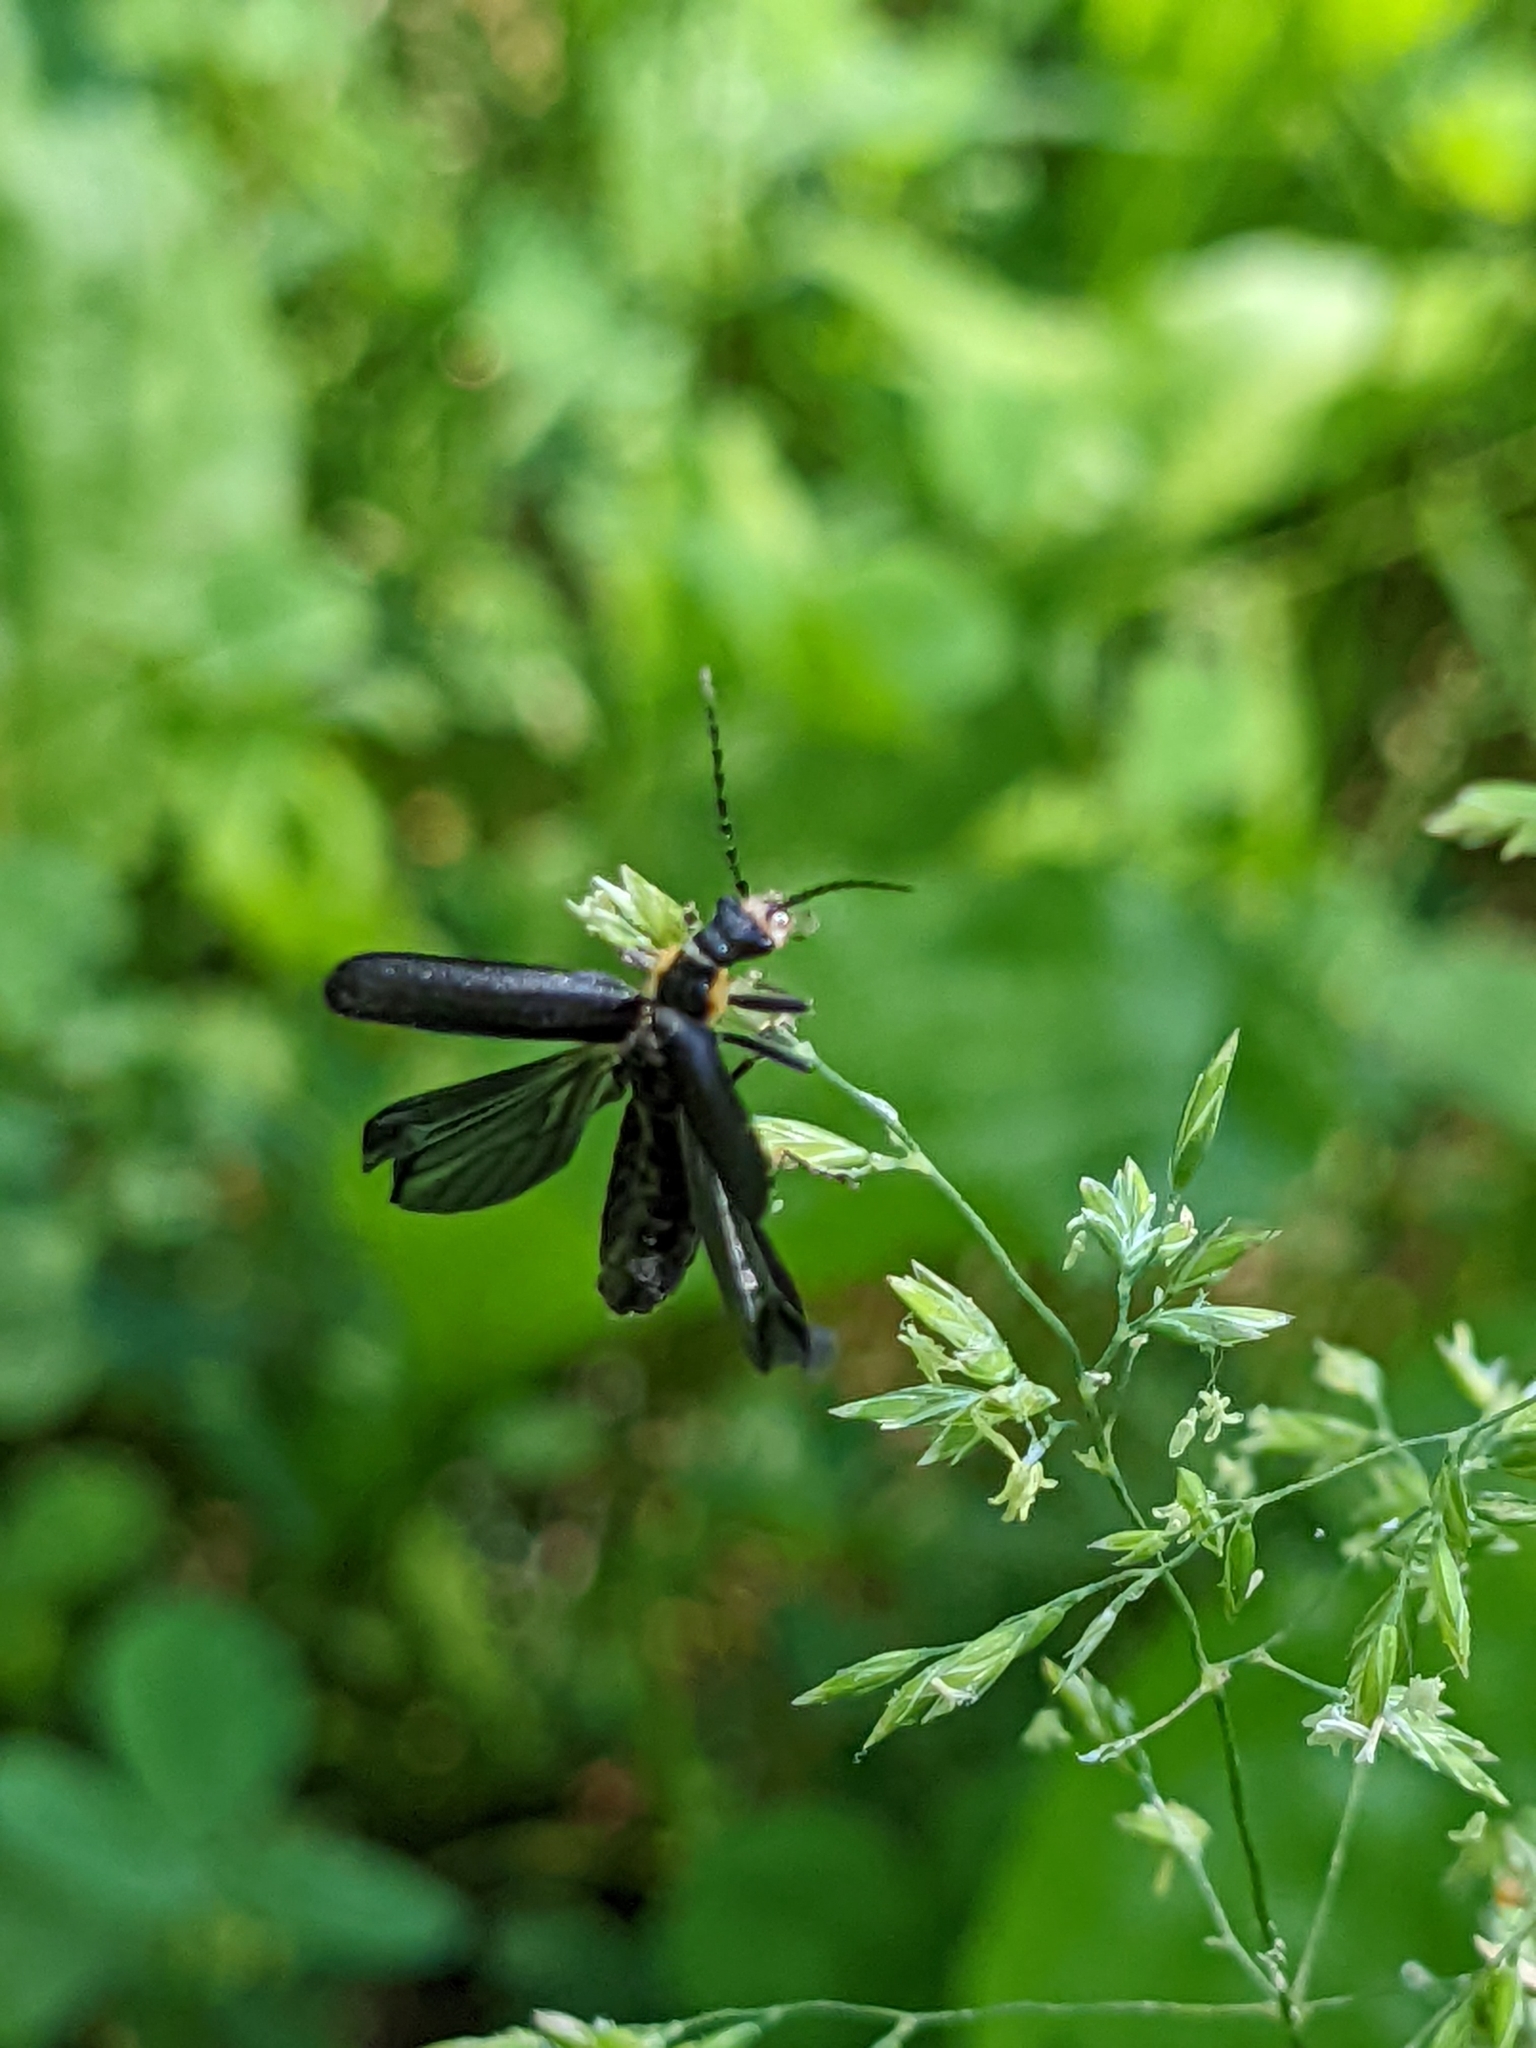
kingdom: Animalia
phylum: Arthropoda
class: Insecta
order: Coleoptera
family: Cantharidae
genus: Podabrus
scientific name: Podabrus rugosulus
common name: Wrinkled soldier beetle
